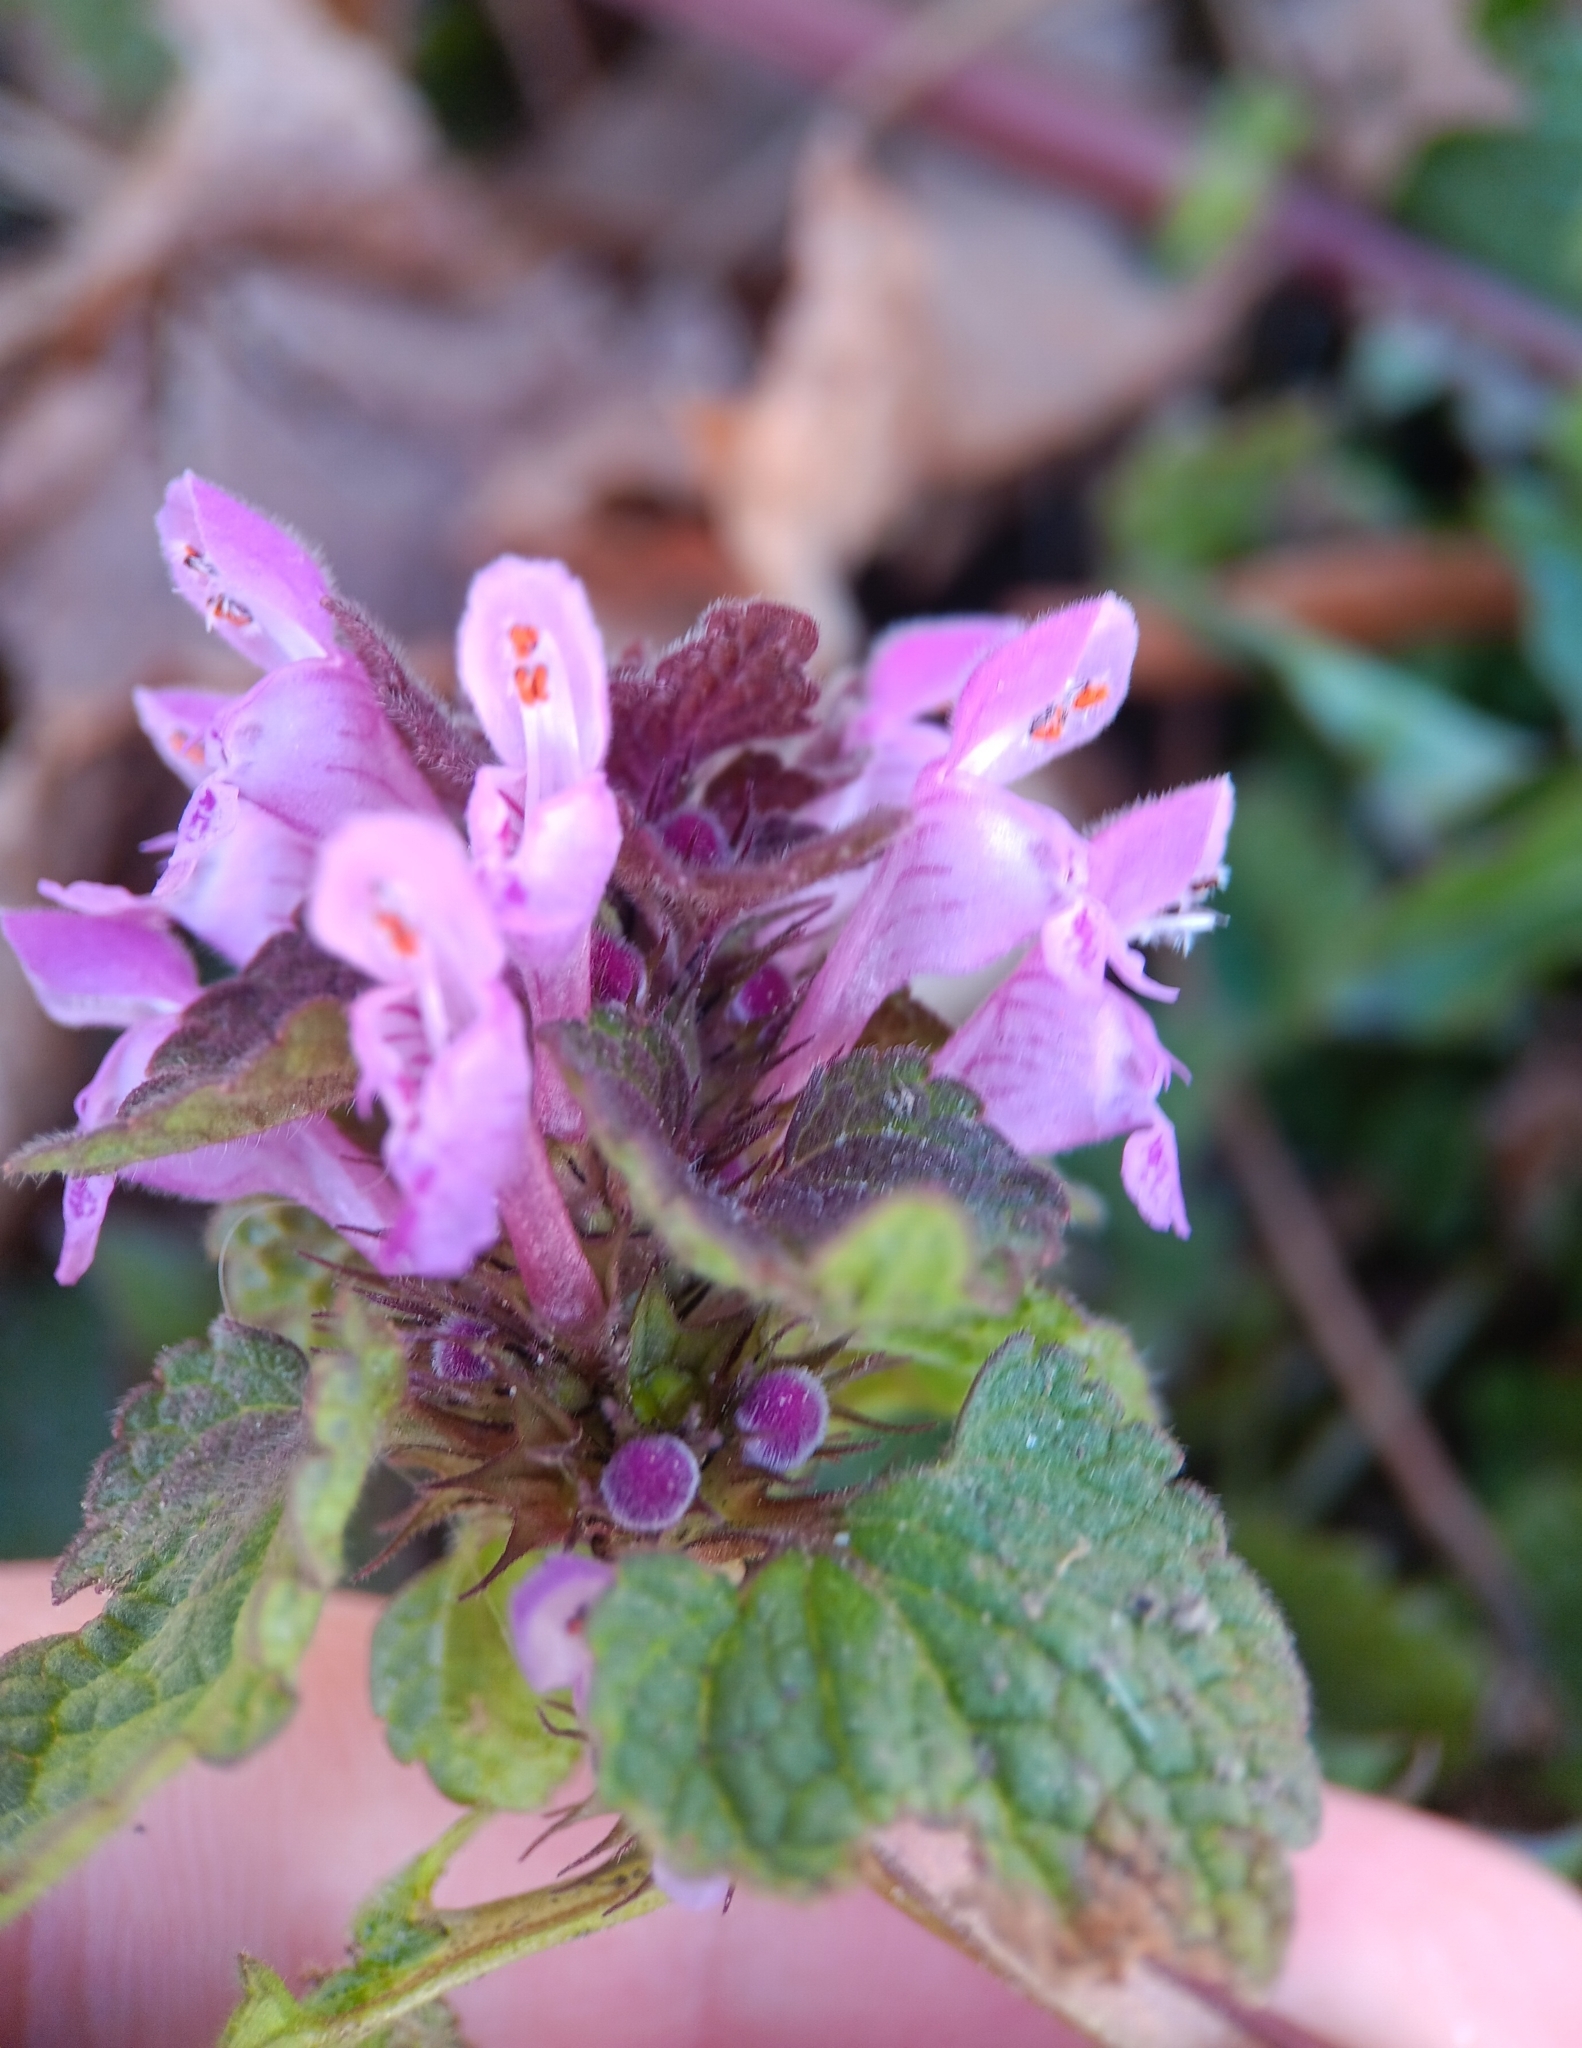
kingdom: Plantae
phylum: Tracheophyta
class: Magnoliopsida
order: Lamiales
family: Lamiaceae
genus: Lamium
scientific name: Lamium purpureum
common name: Red dead-nettle
